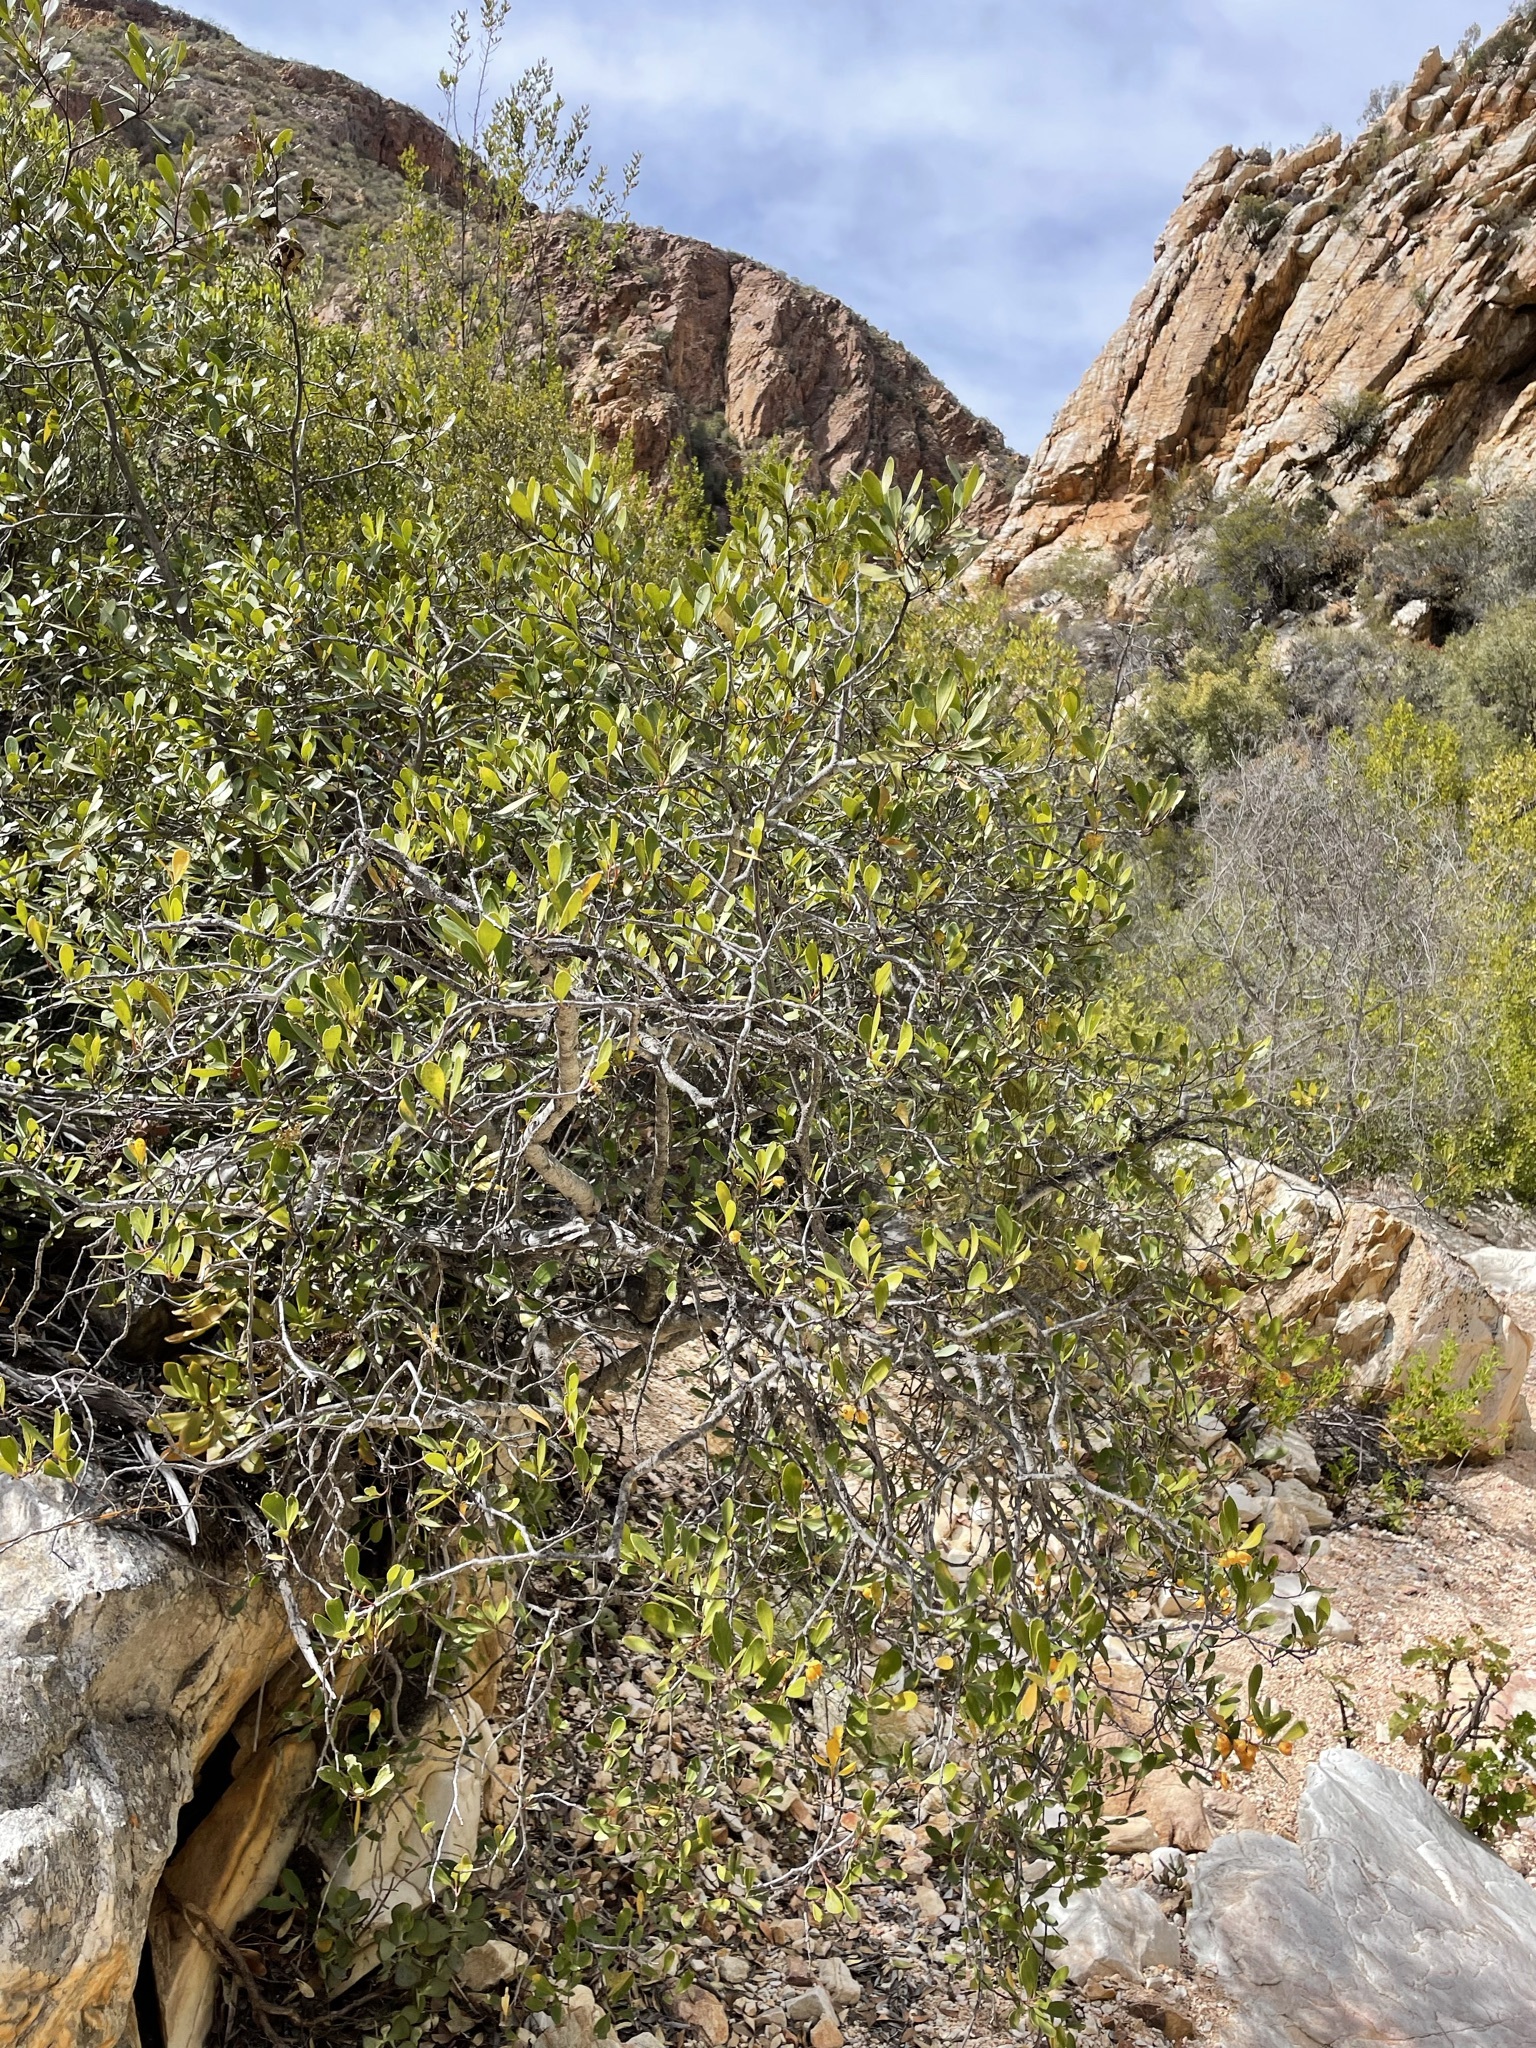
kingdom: Plantae
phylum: Tracheophyta
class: Magnoliopsida
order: Celastrales
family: Celastraceae
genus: Pterocelastrus
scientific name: Pterocelastrus tricuspidatus
